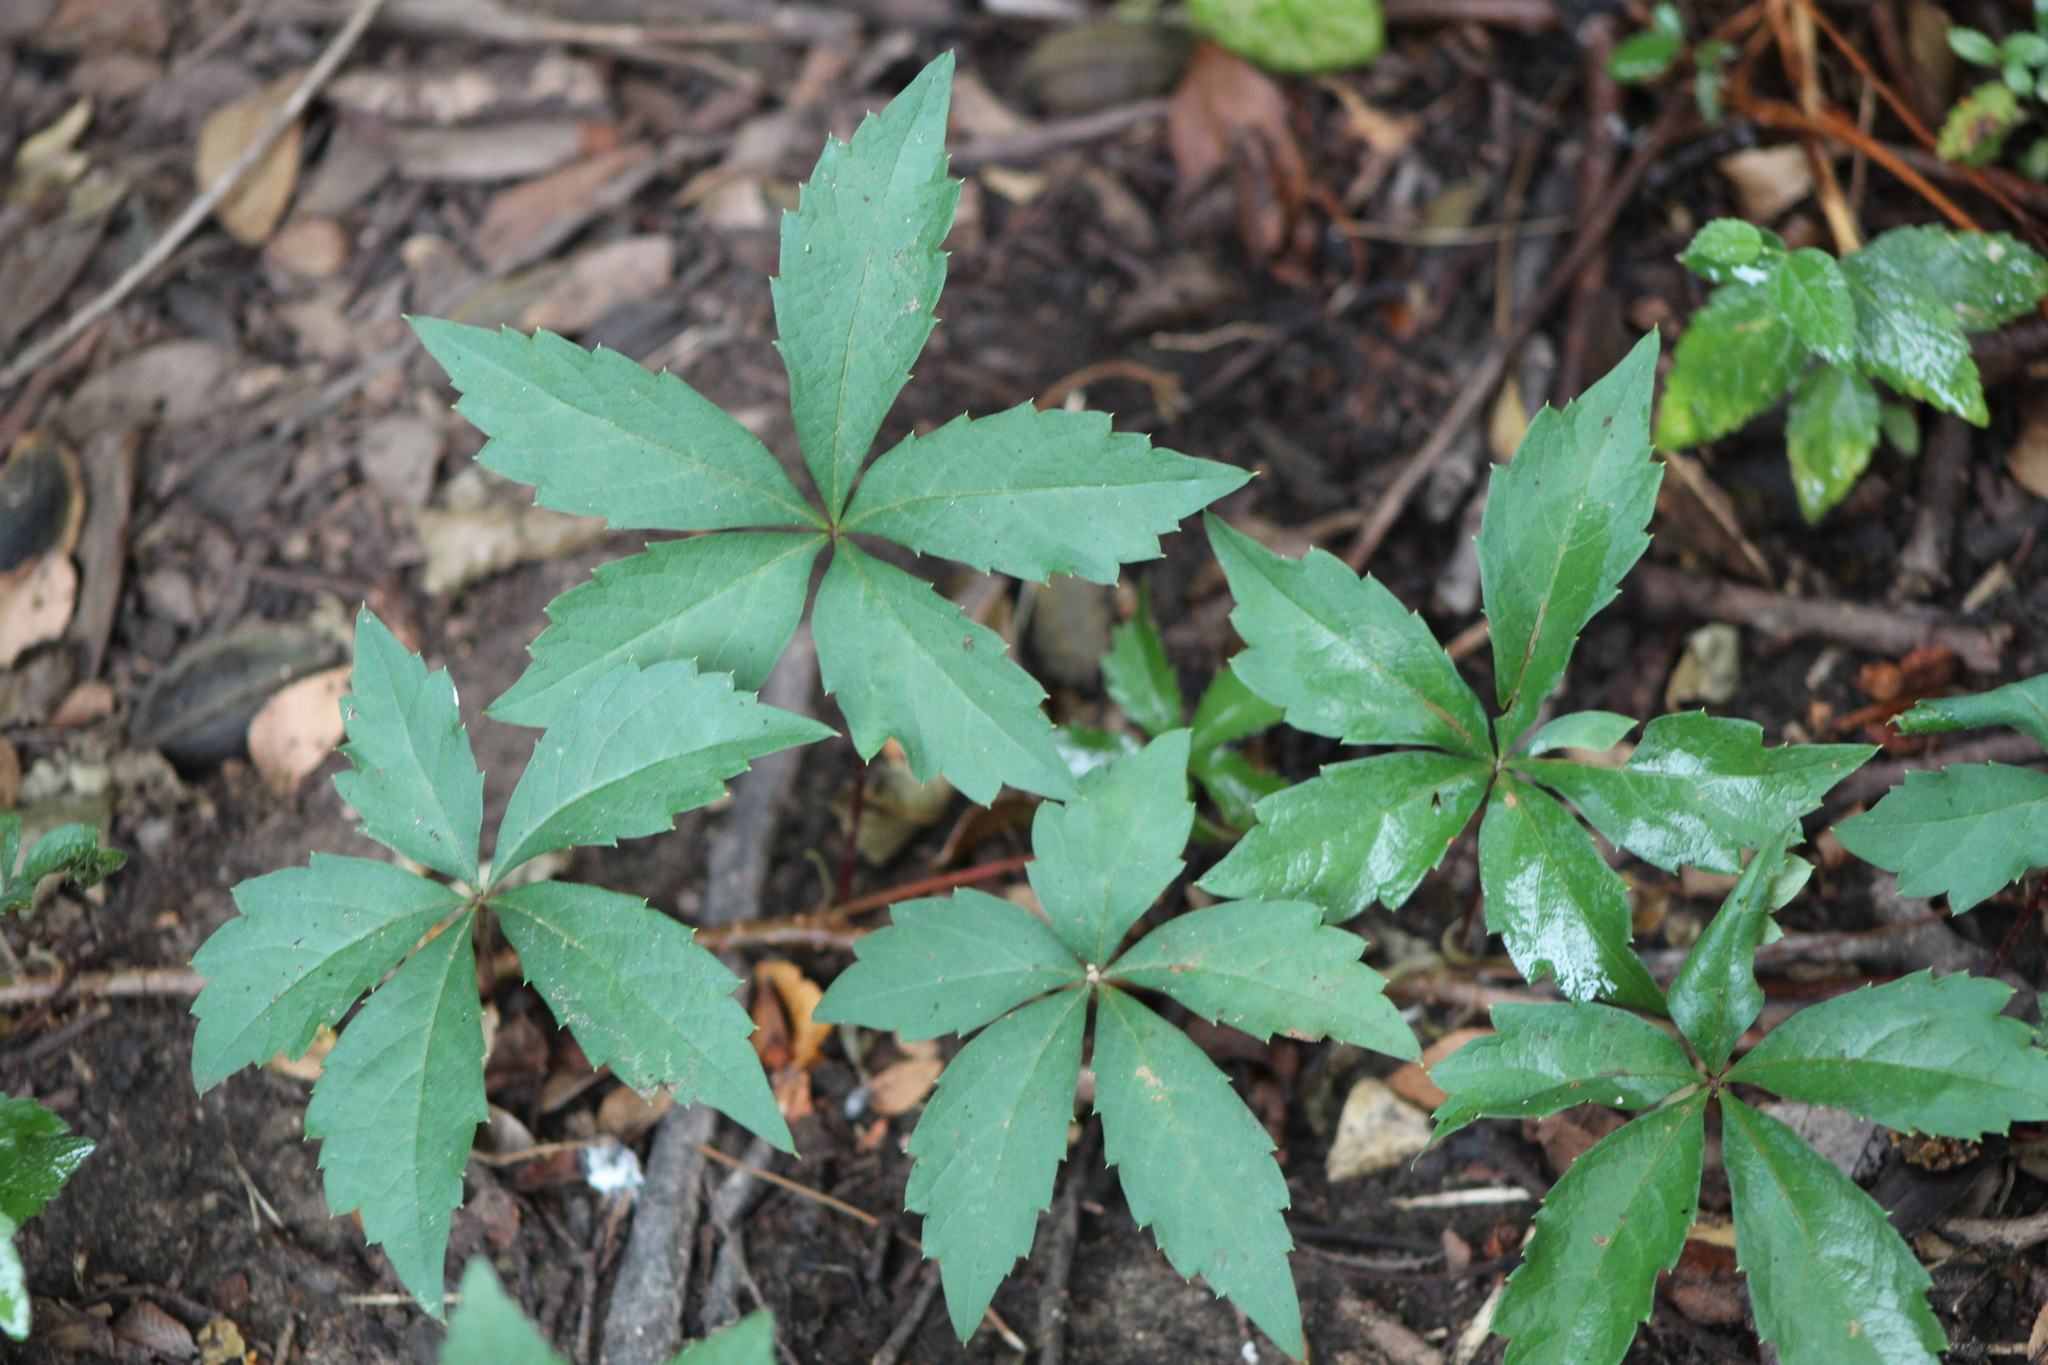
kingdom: Plantae
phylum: Tracheophyta
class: Magnoliopsida
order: Vitales
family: Vitaceae
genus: Parthenocissus
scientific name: Parthenocissus quinquefolia
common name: Virginia-creeper
